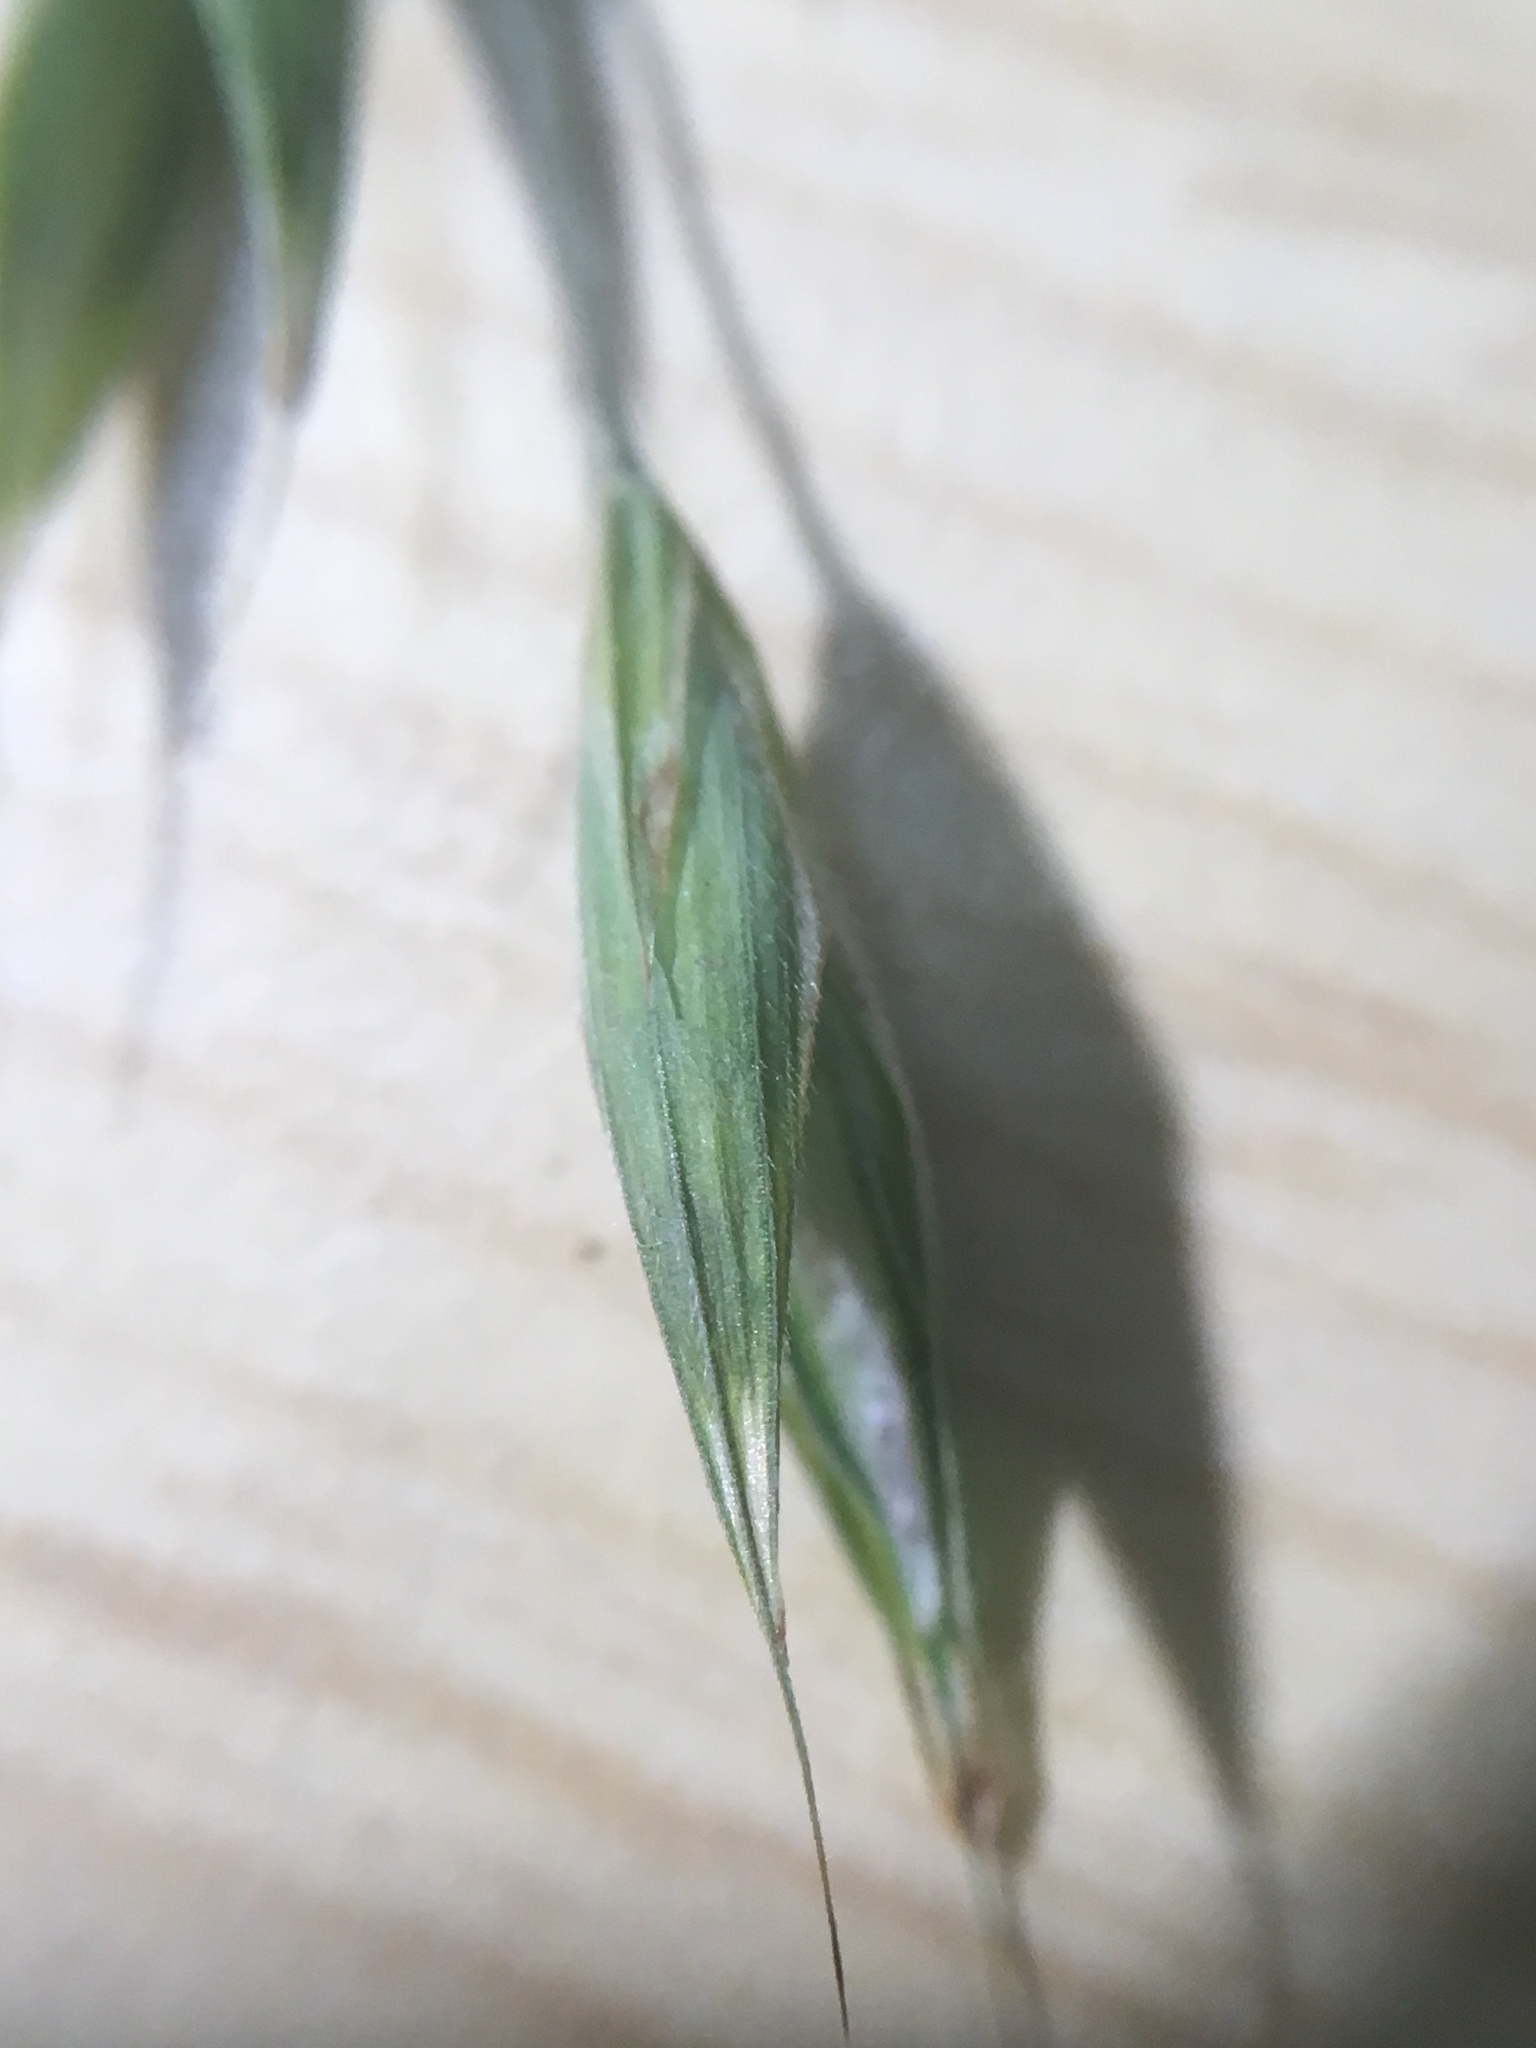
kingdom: Plantae
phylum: Tracheophyta
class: Liliopsida
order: Poales
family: Poaceae
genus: Bromus
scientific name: Bromus pubescens
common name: Hairy wood brome grass
